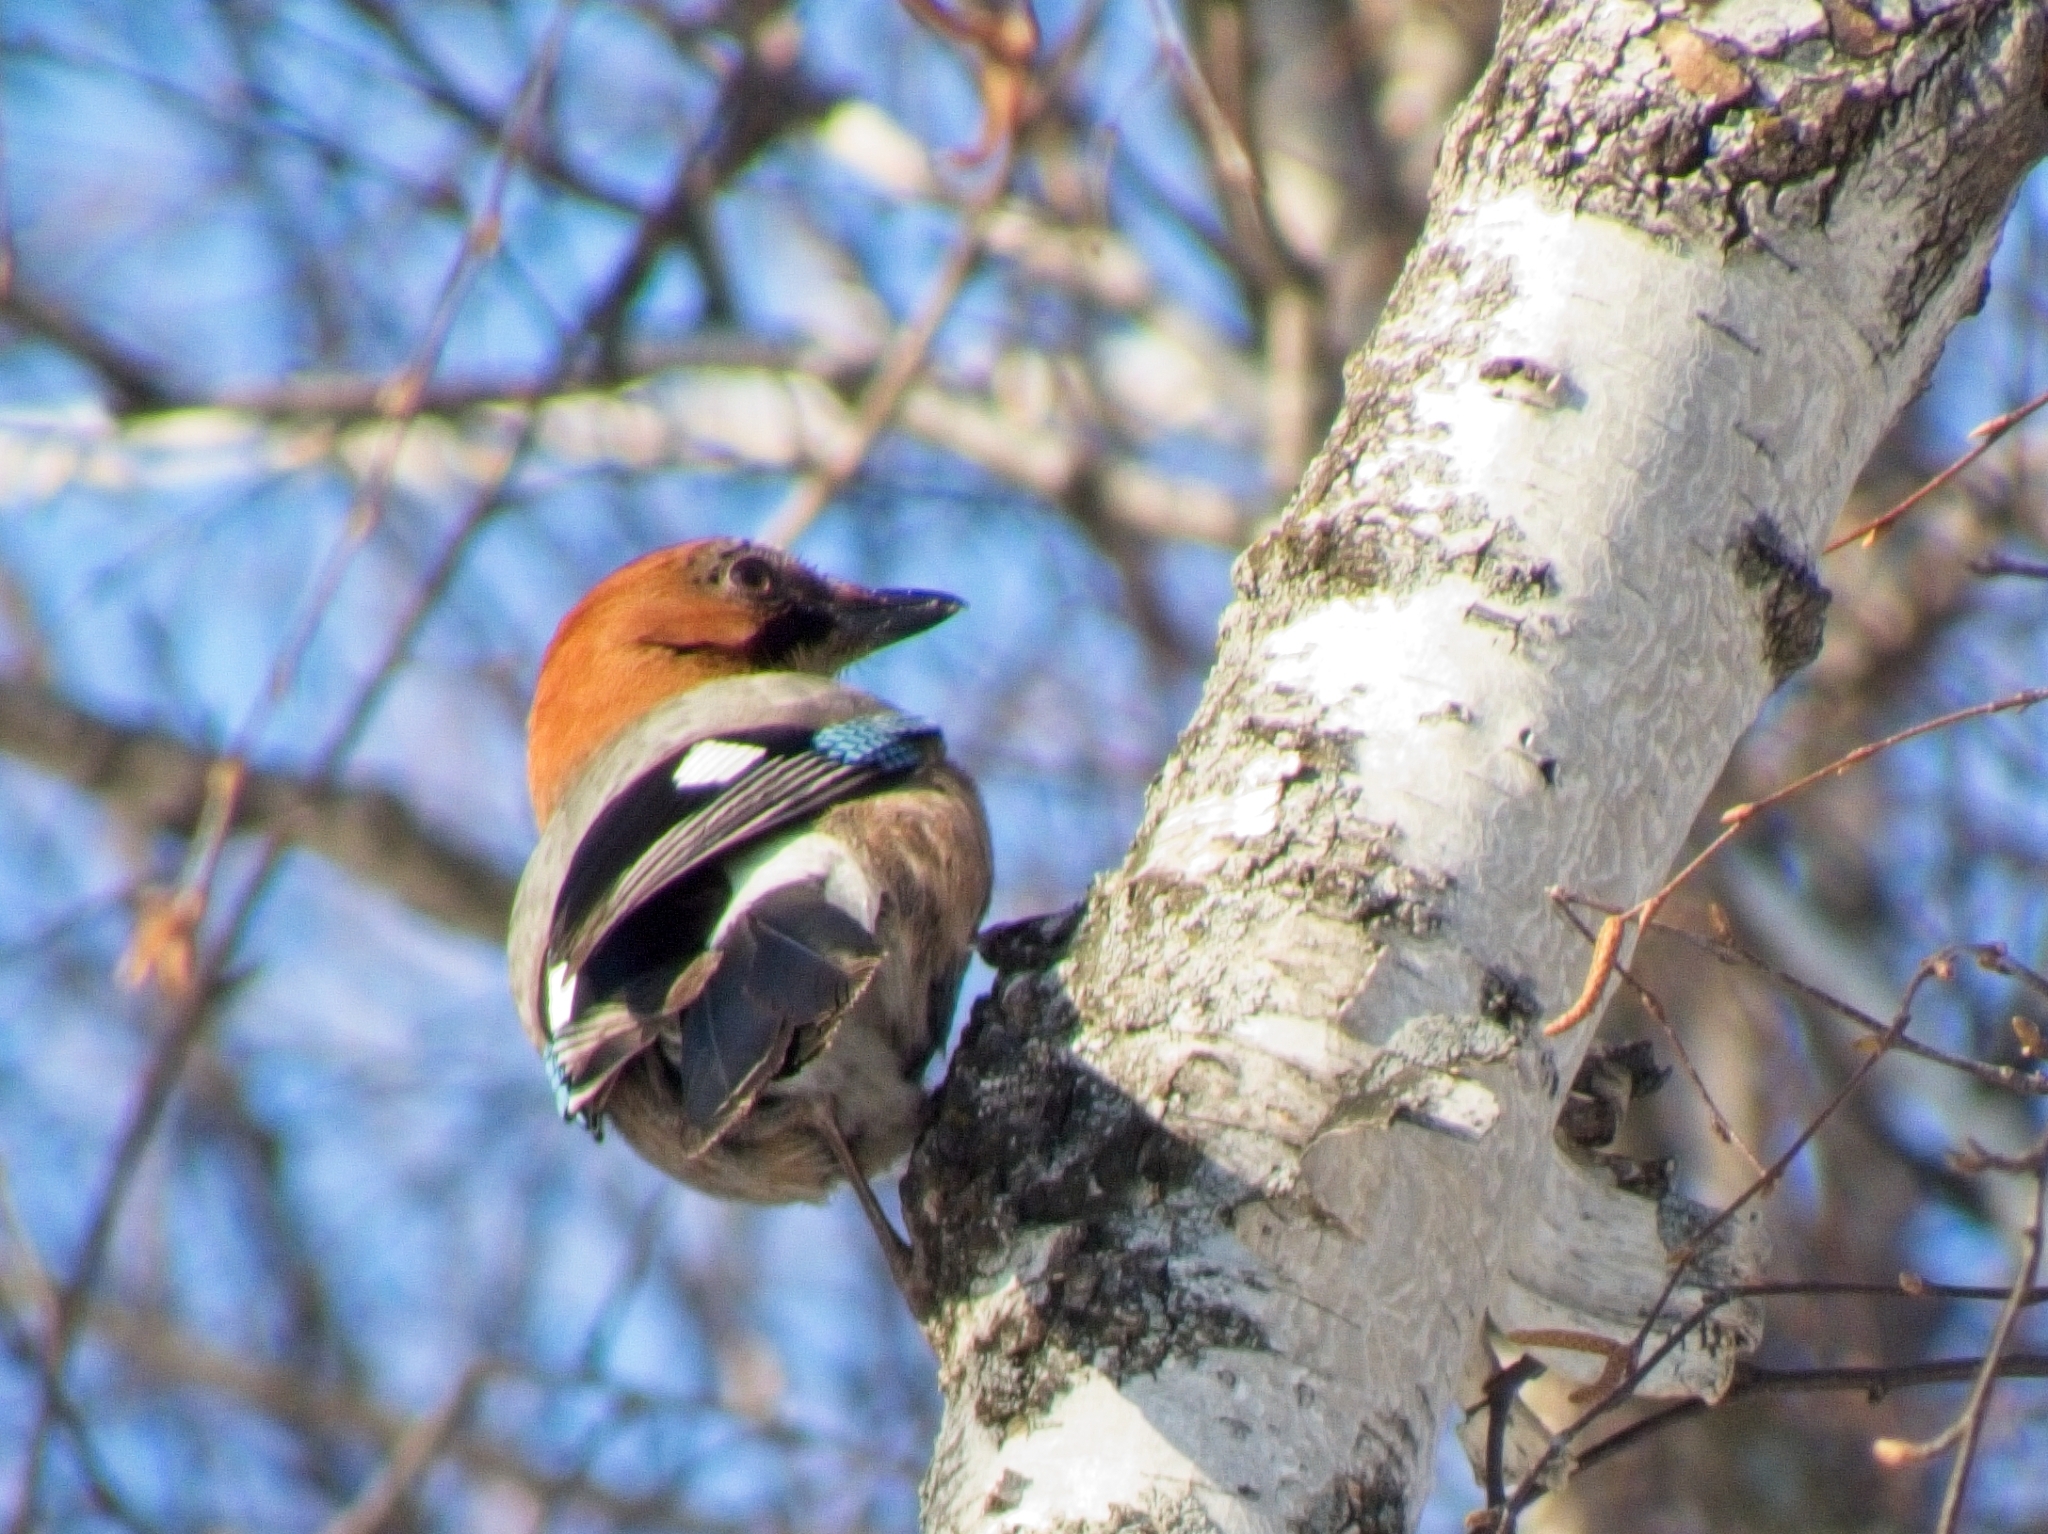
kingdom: Animalia
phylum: Chordata
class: Aves
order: Passeriformes
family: Corvidae
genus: Garrulus
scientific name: Garrulus glandarius
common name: Eurasian jay
